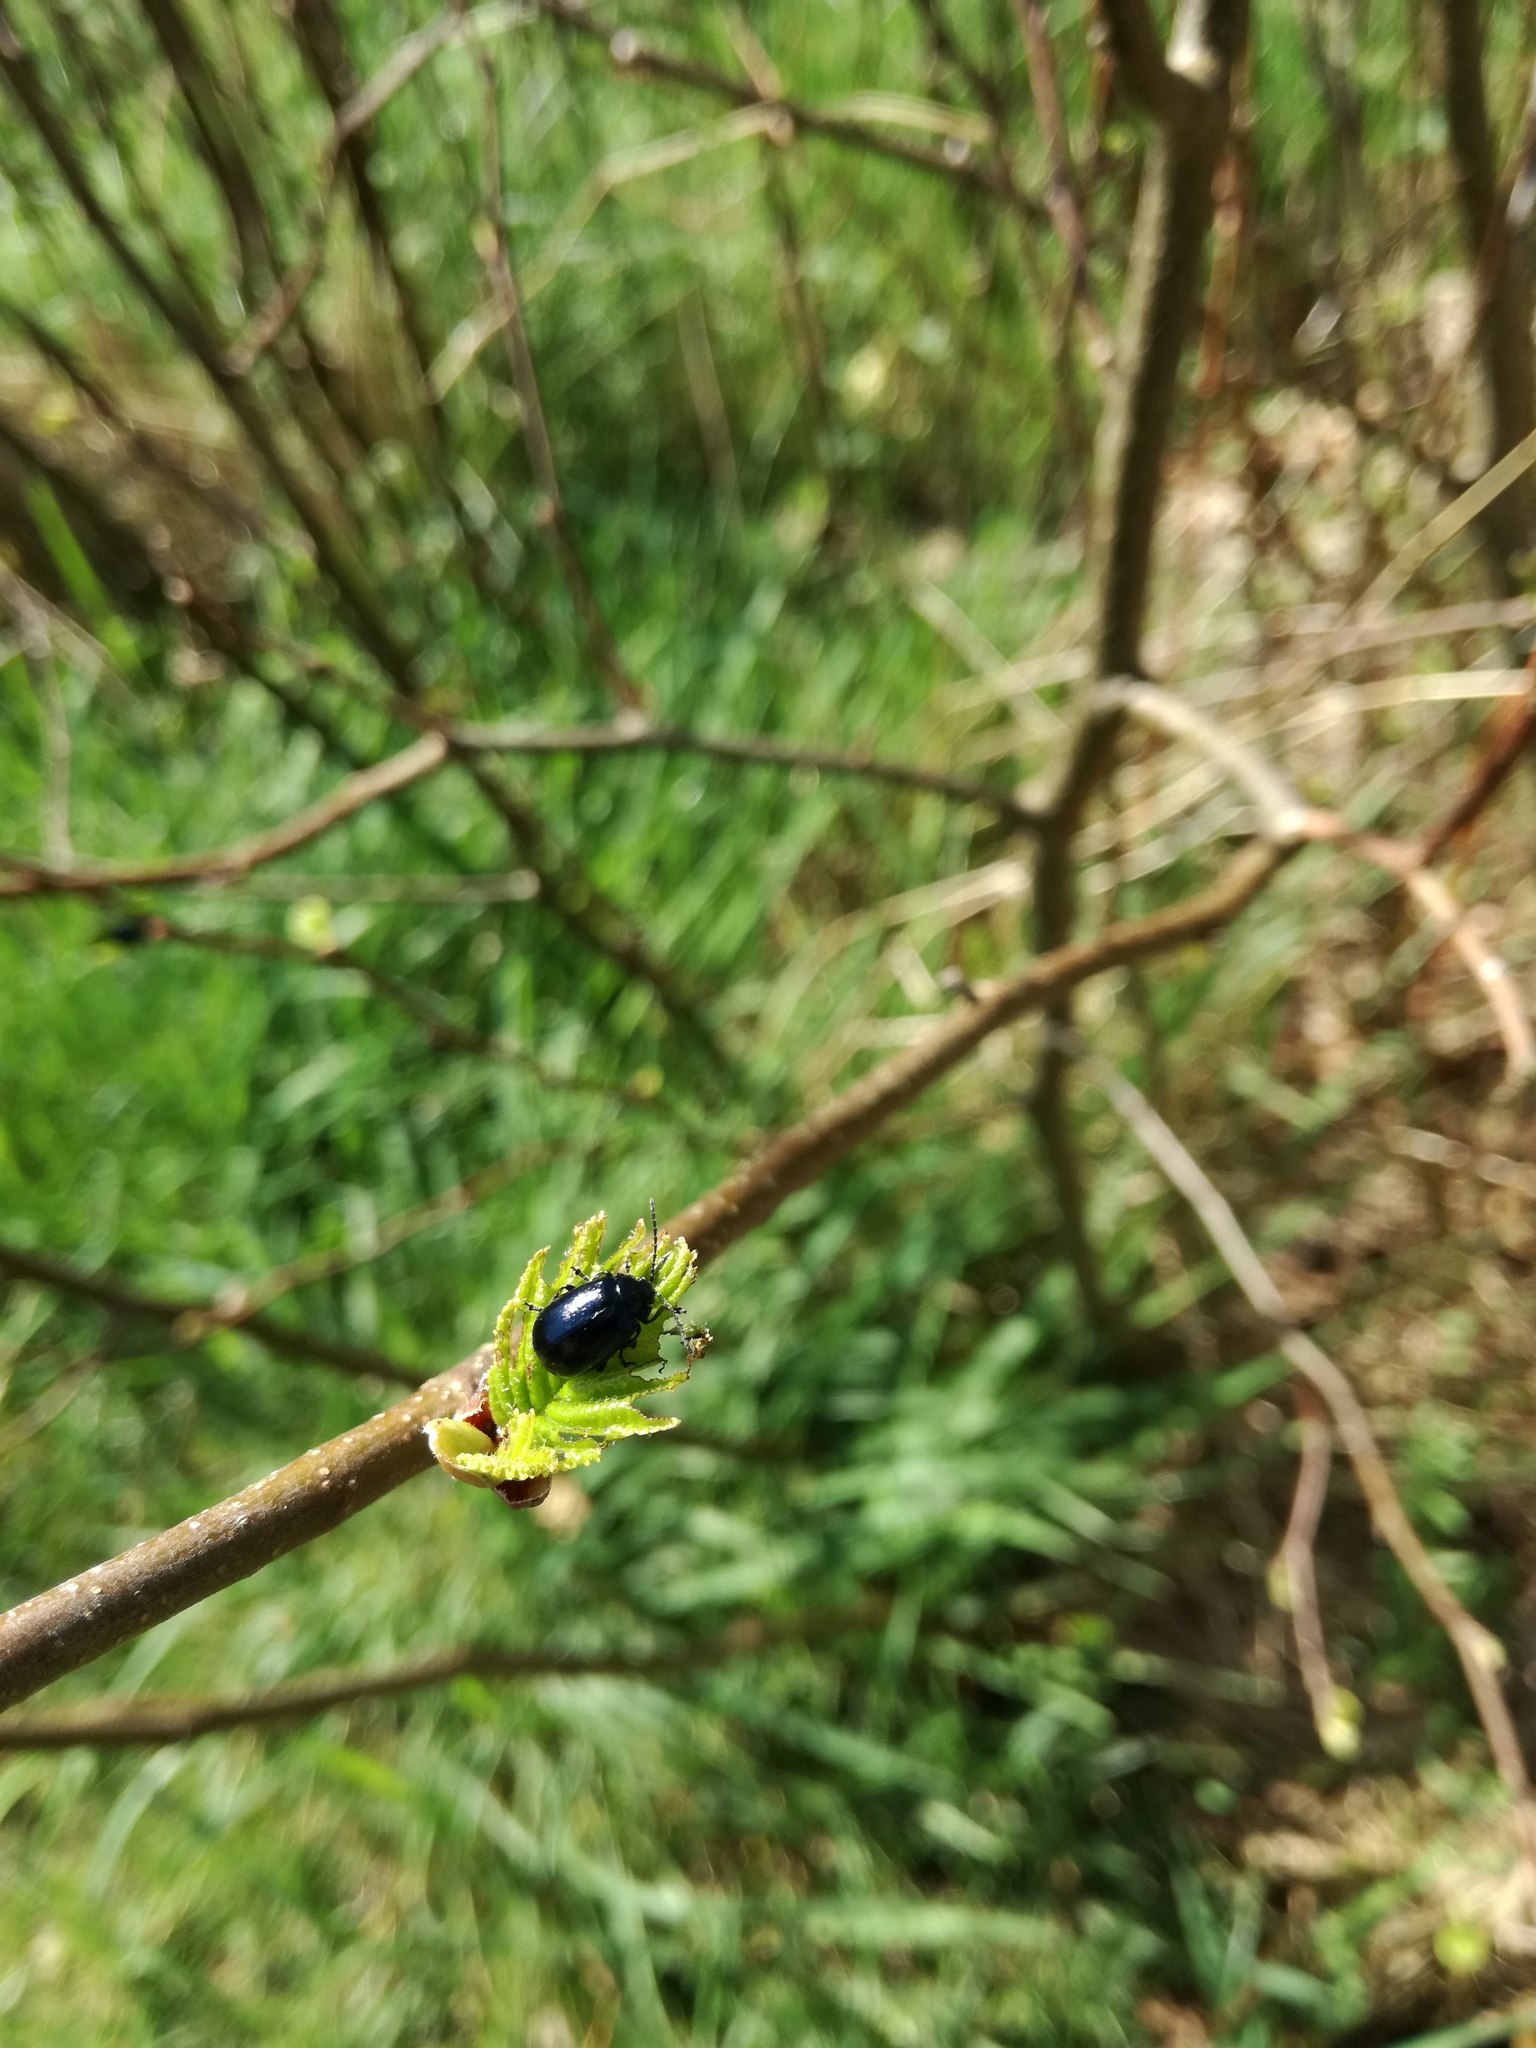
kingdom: Animalia
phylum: Arthropoda
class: Insecta
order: Coleoptera
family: Chrysomelidae
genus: Agelastica
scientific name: Agelastica alni
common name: Alder leaf beetle
